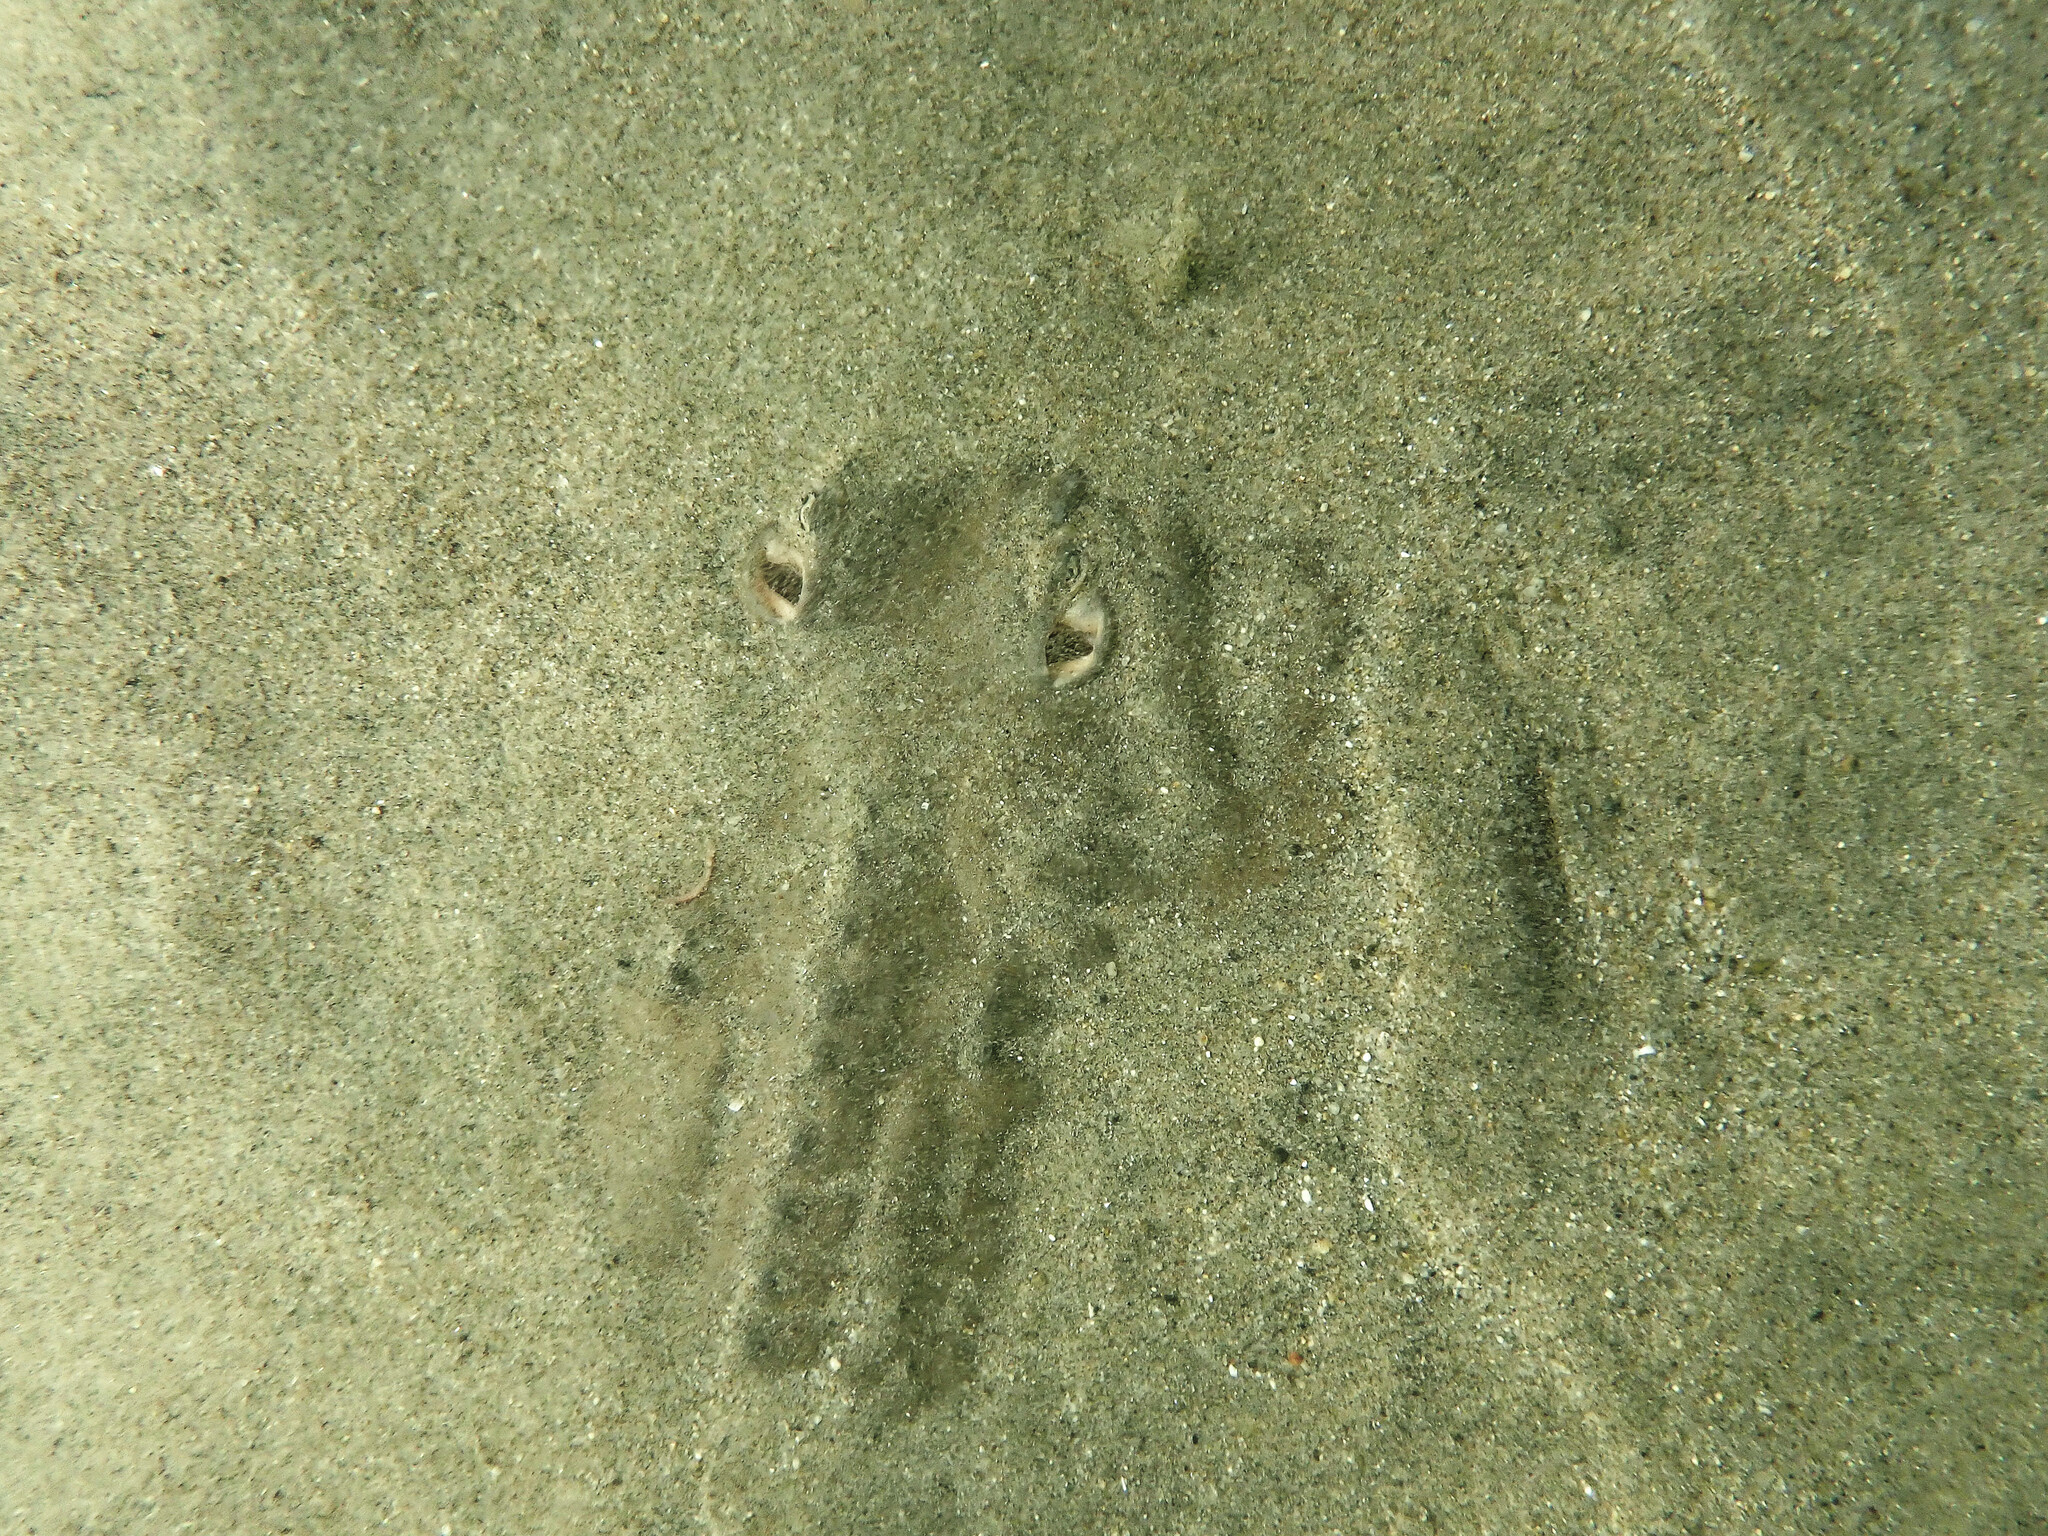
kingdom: Animalia
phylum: Chordata
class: Elasmobranchii
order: Rhinopristiformes
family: Rhinobatidae
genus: Platyrhinoidis
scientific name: Platyrhinoidis triseriata
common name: Thornback
